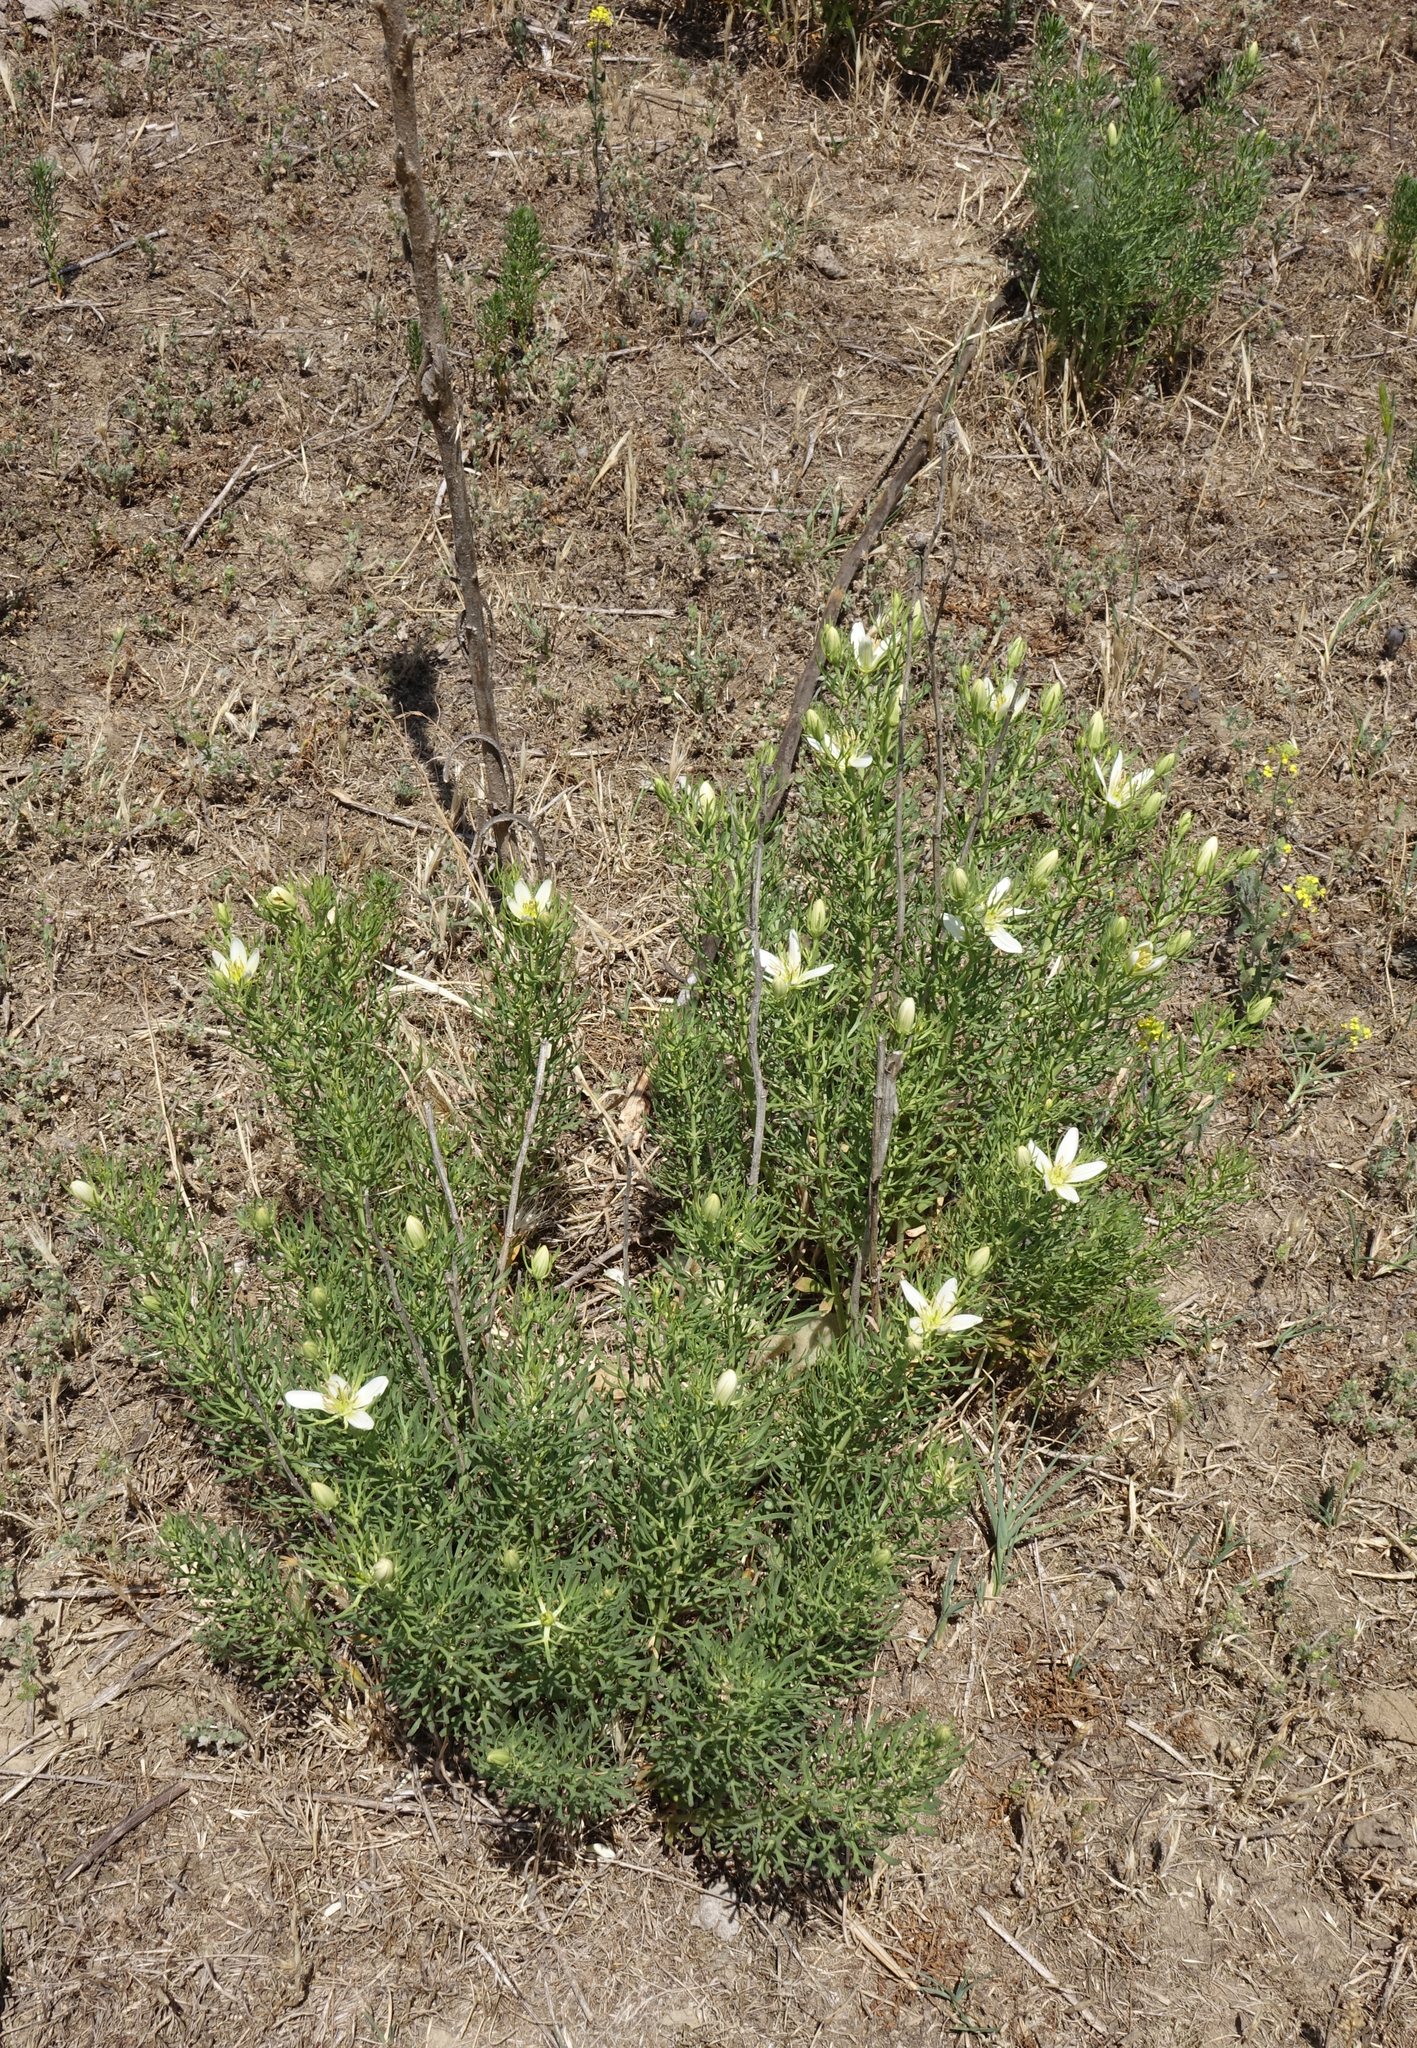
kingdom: Plantae
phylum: Tracheophyta
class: Magnoliopsida
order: Sapindales
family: Tetradiclidaceae
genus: Peganum
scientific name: Peganum harmala
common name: Harmal peganum
